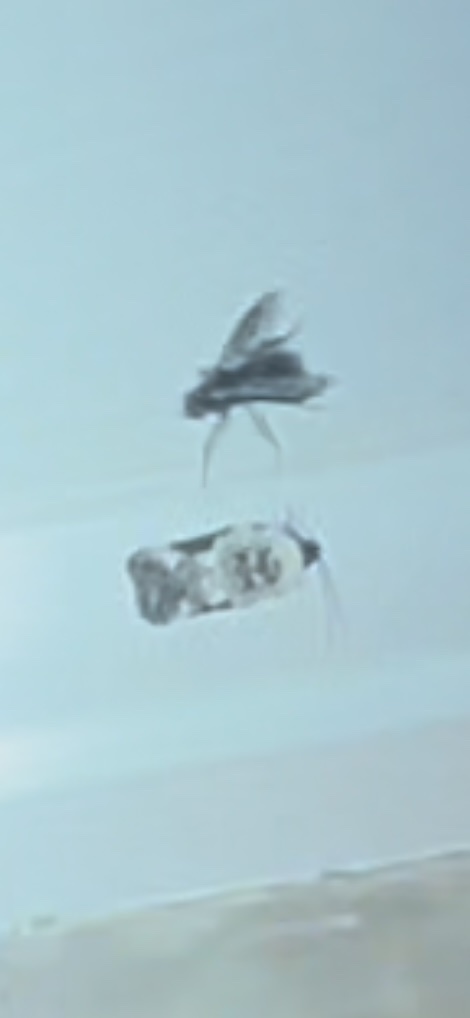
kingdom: Animalia
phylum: Arthropoda
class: Insecta
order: Lepidoptera
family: Tortricidae
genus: Acleris
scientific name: Acleris nivisellana
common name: Snowy-shouldered acleris moth
